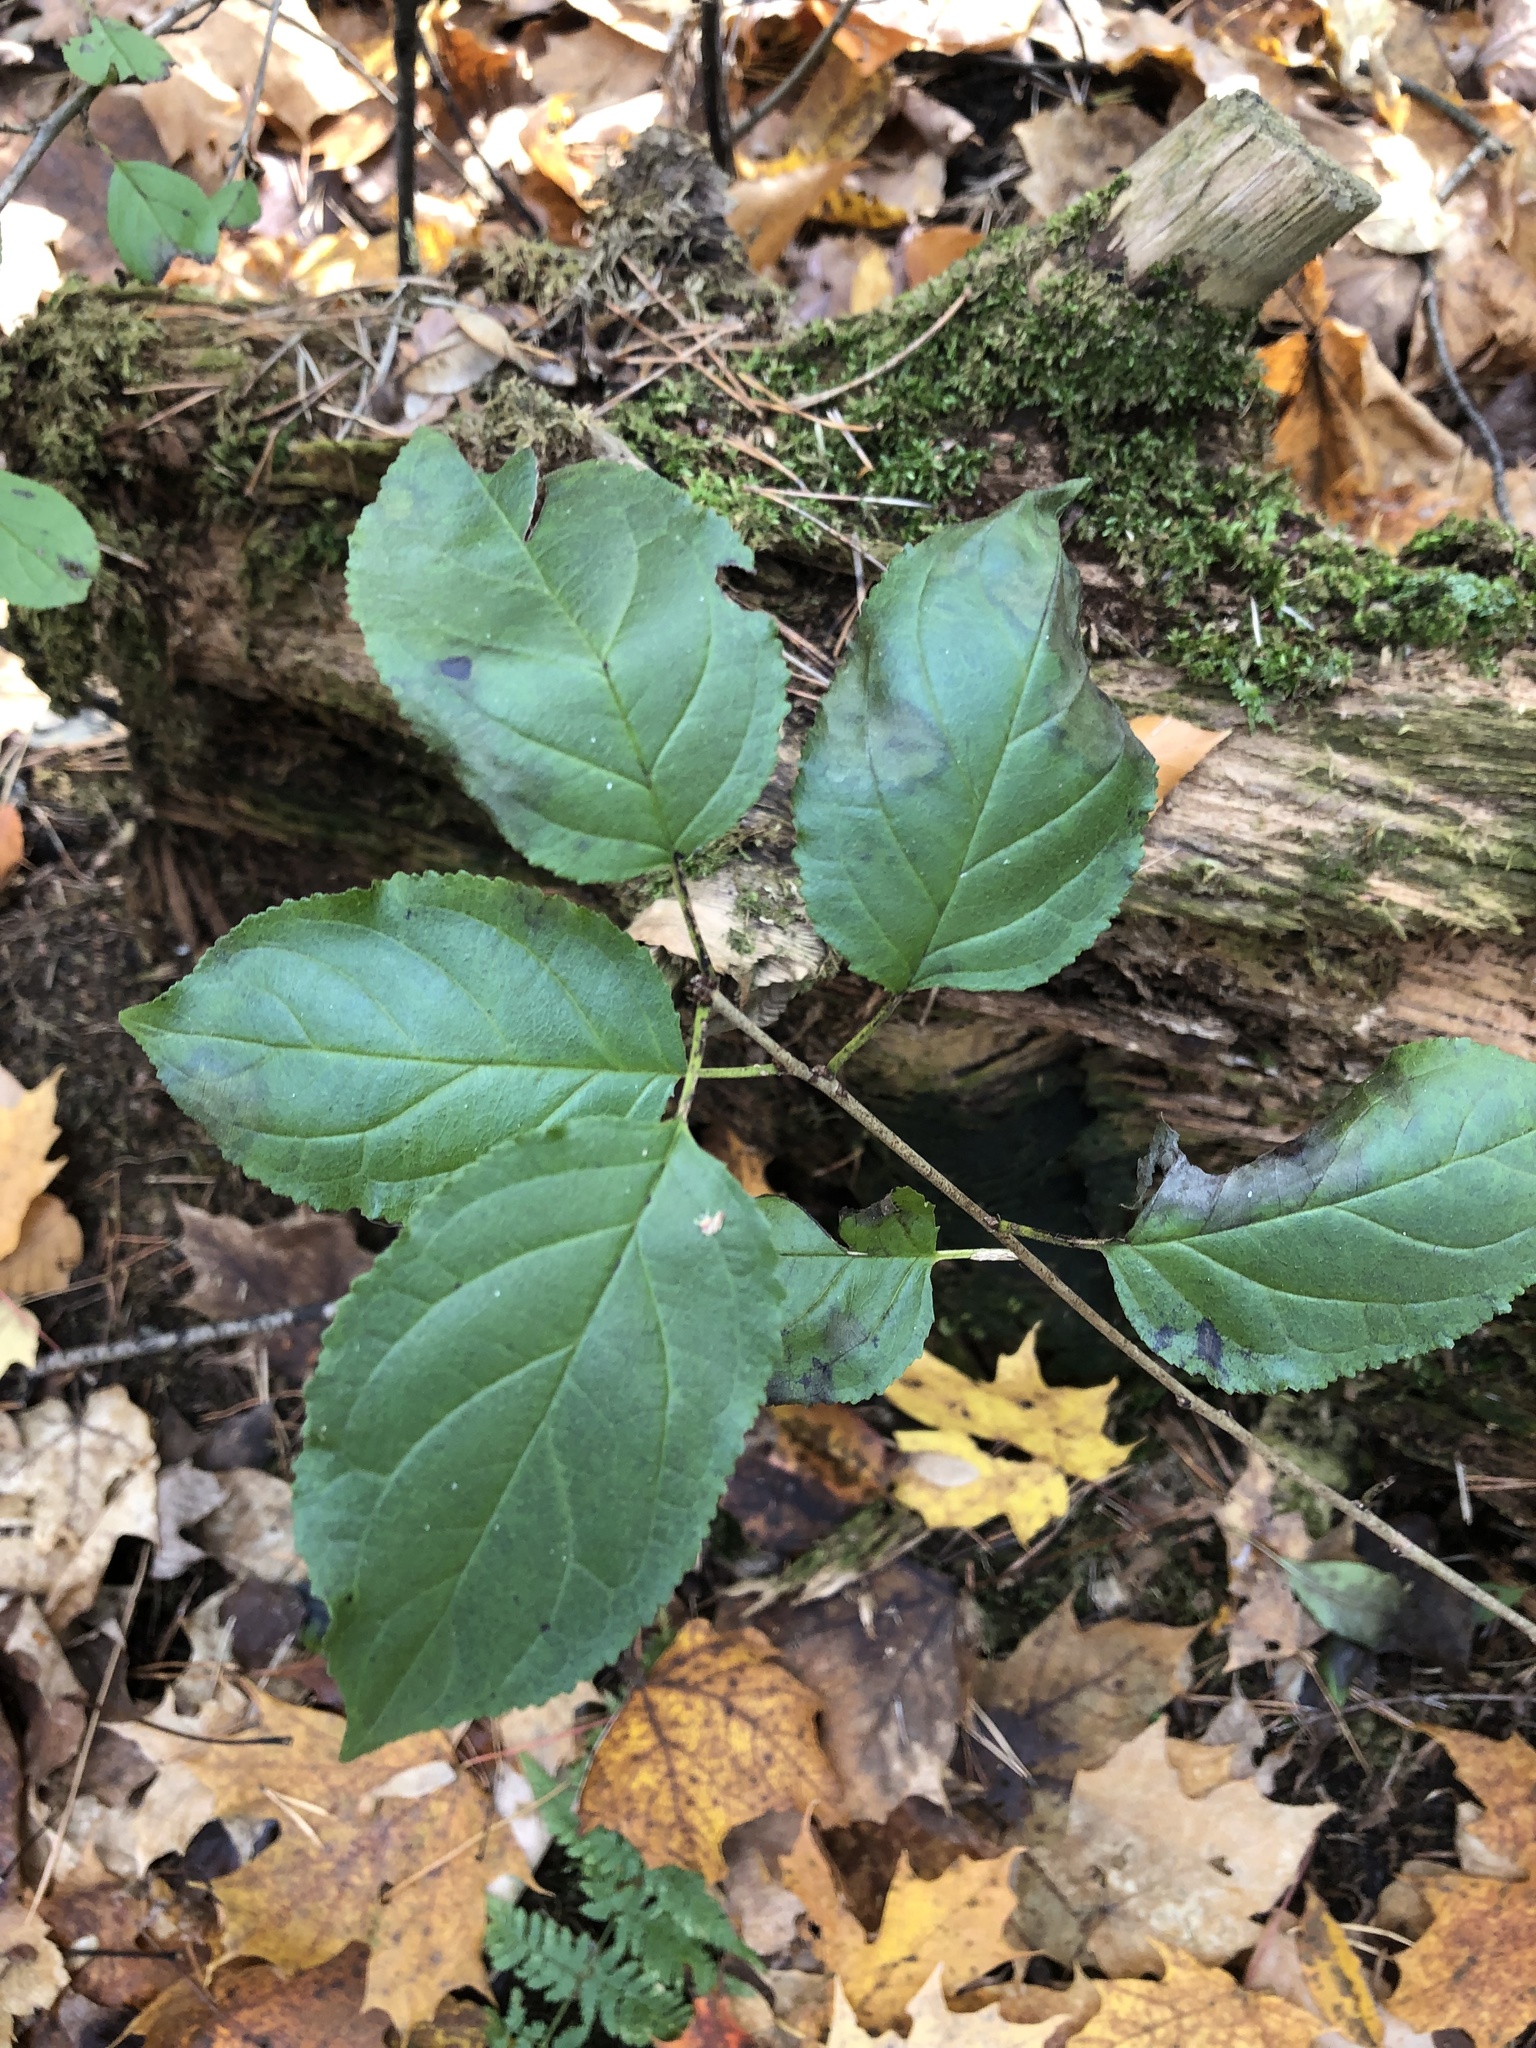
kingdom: Plantae
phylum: Tracheophyta
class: Magnoliopsida
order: Rosales
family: Rhamnaceae
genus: Rhamnus
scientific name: Rhamnus cathartica
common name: Common buckthorn
